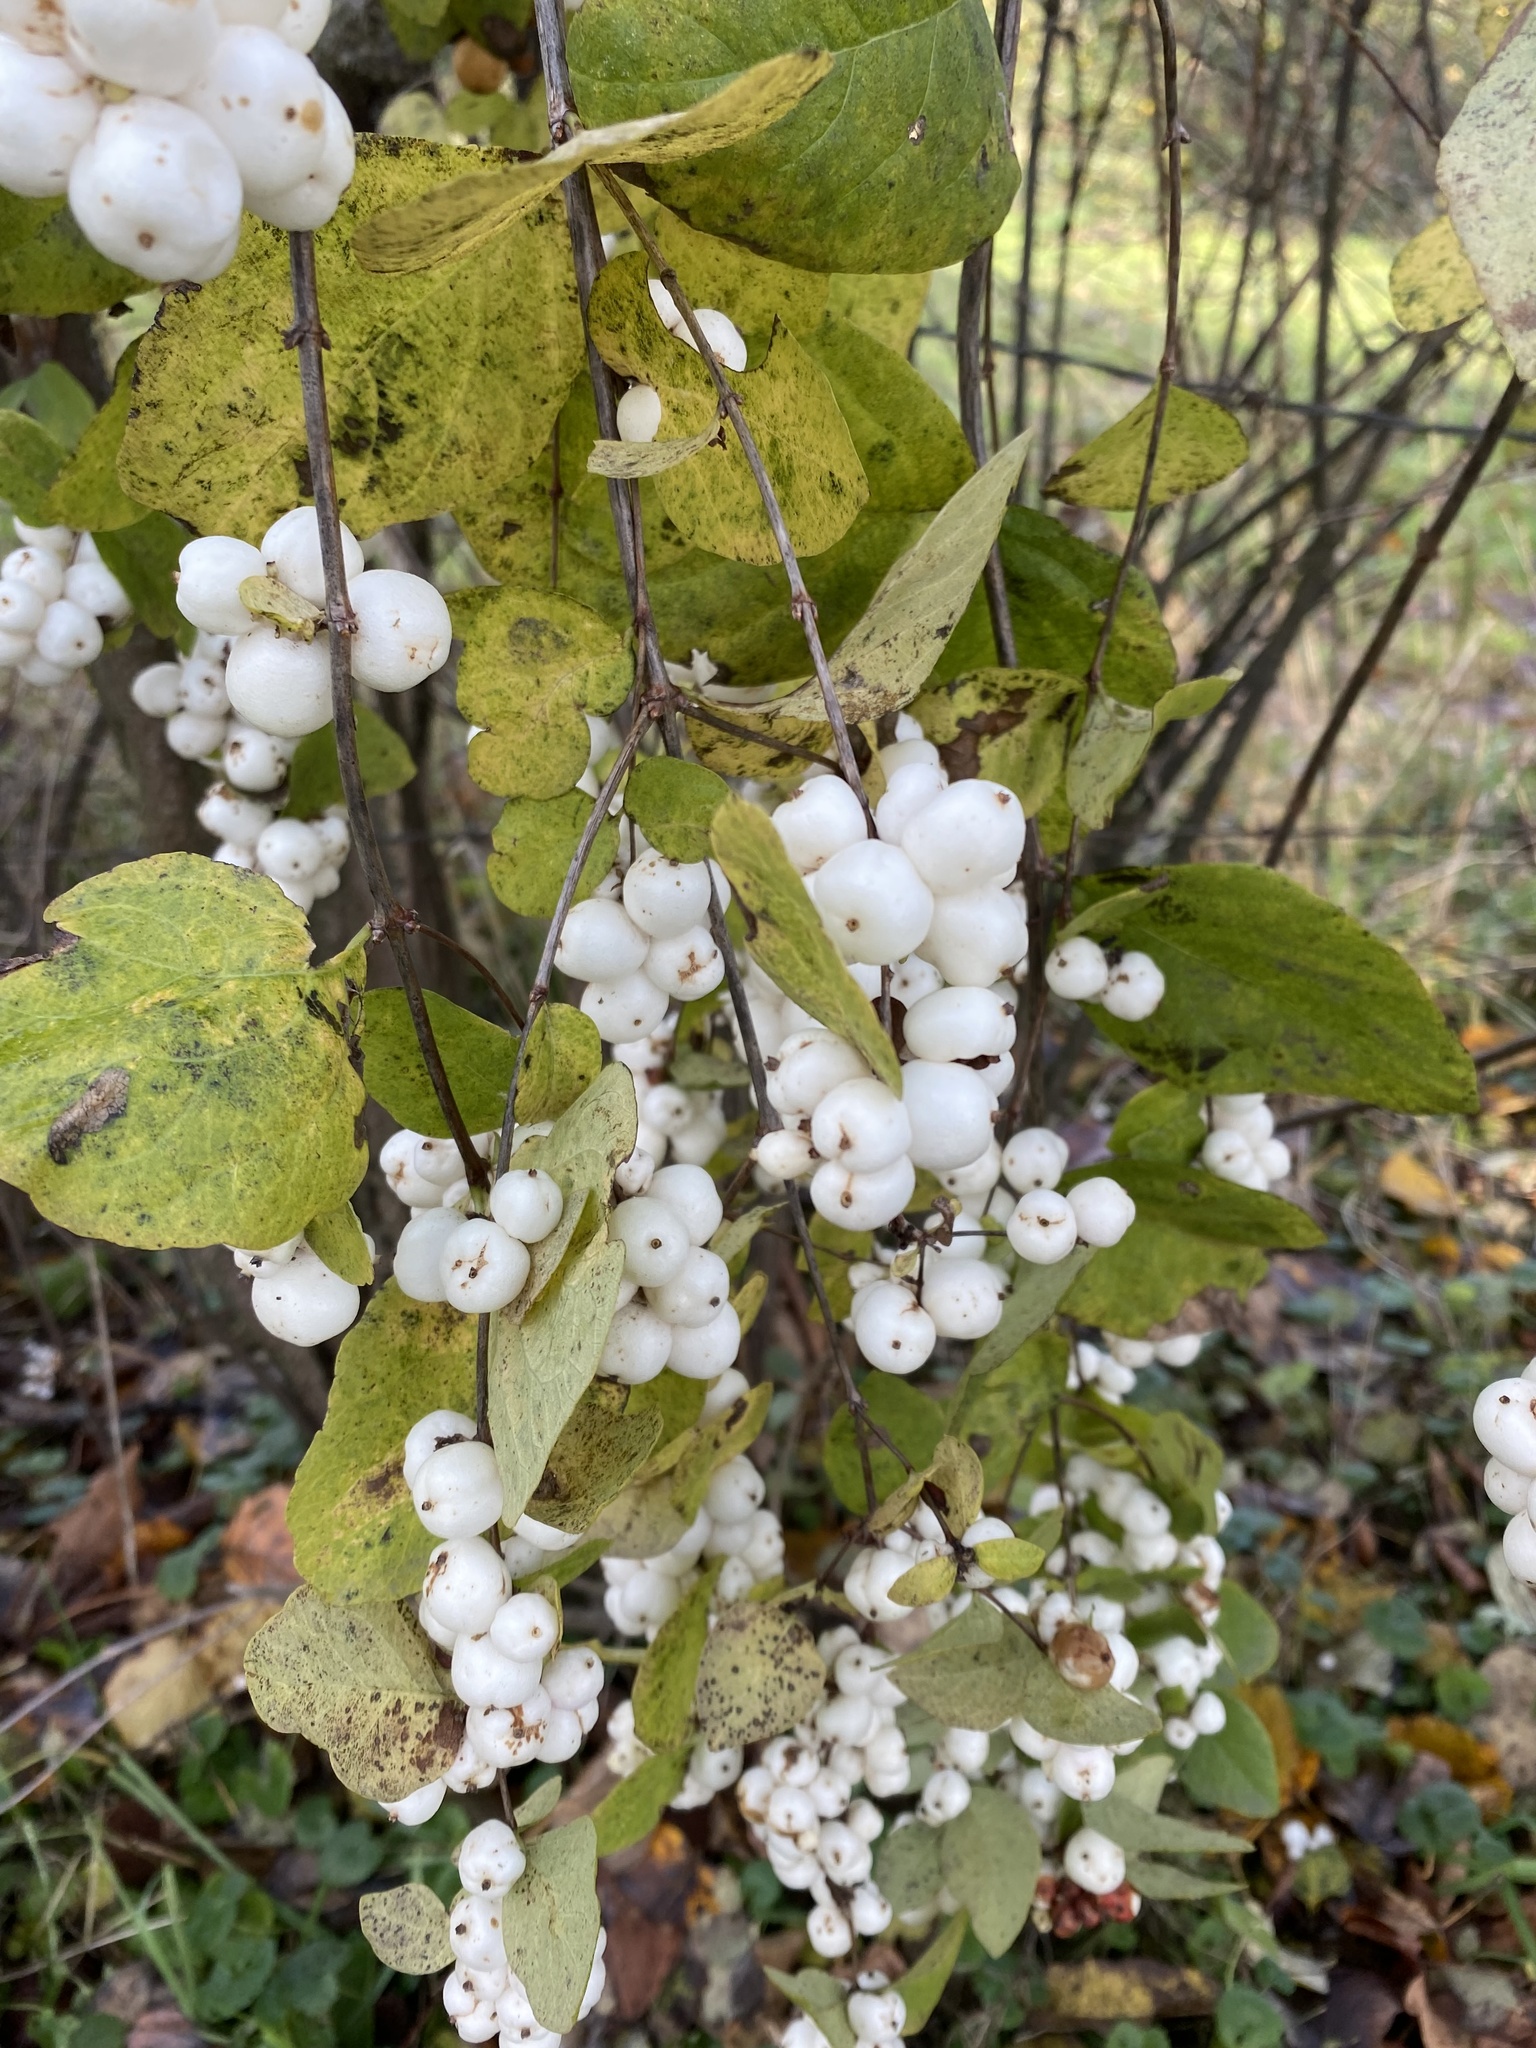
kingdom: Plantae
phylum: Tracheophyta
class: Magnoliopsida
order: Dipsacales
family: Caprifoliaceae
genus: Symphoricarpos
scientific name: Symphoricarpos albus
